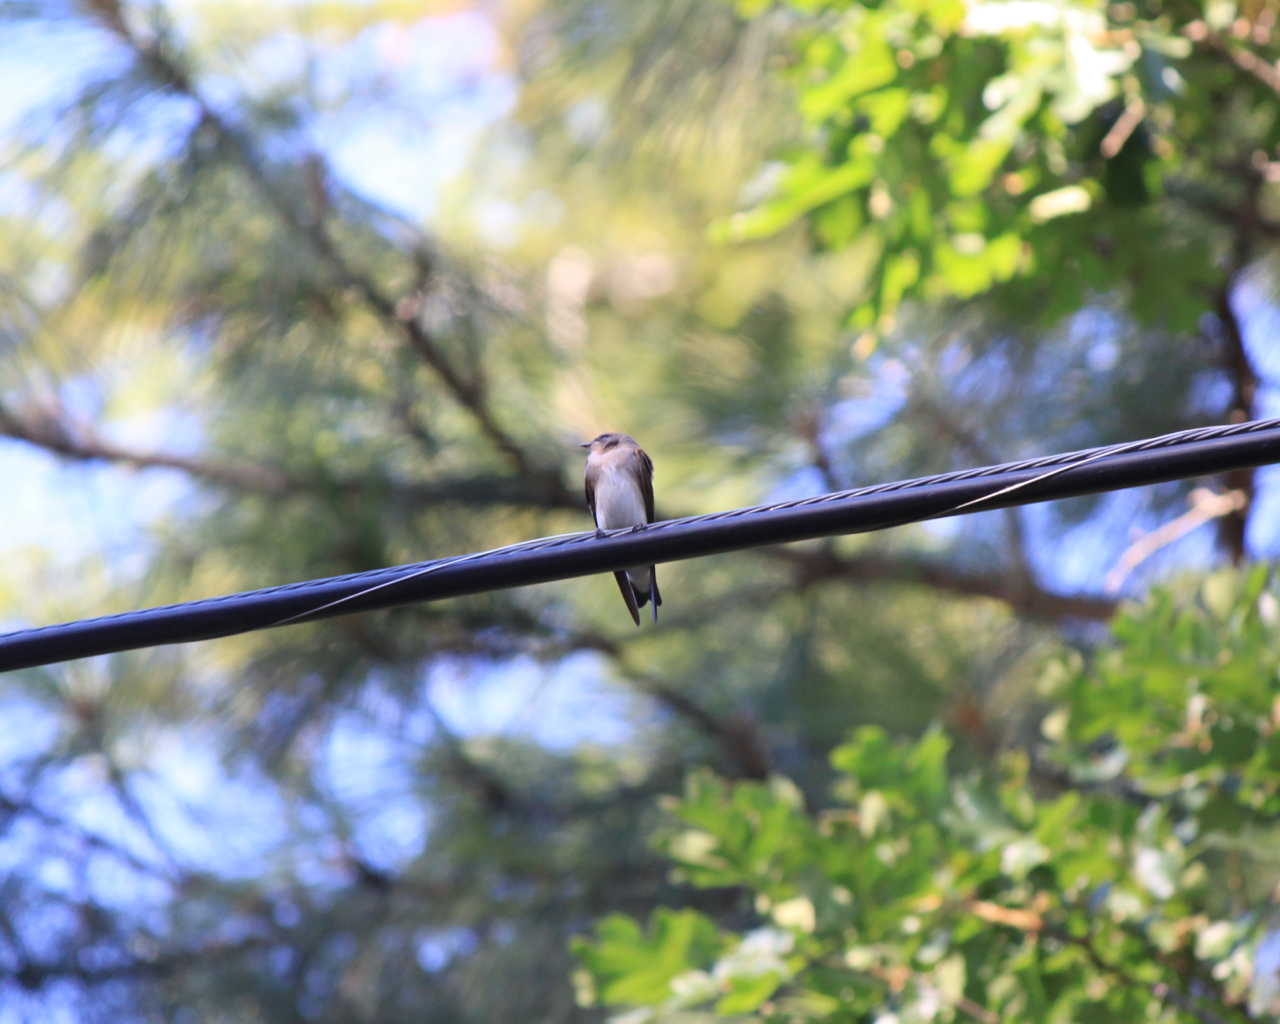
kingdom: Animalia
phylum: Chordata
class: Aves
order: Passeriformes
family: Hirundinidae
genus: Stelgidopteryx
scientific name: Stelgidopteryx serripennis
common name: Northern rough-winged swallow
